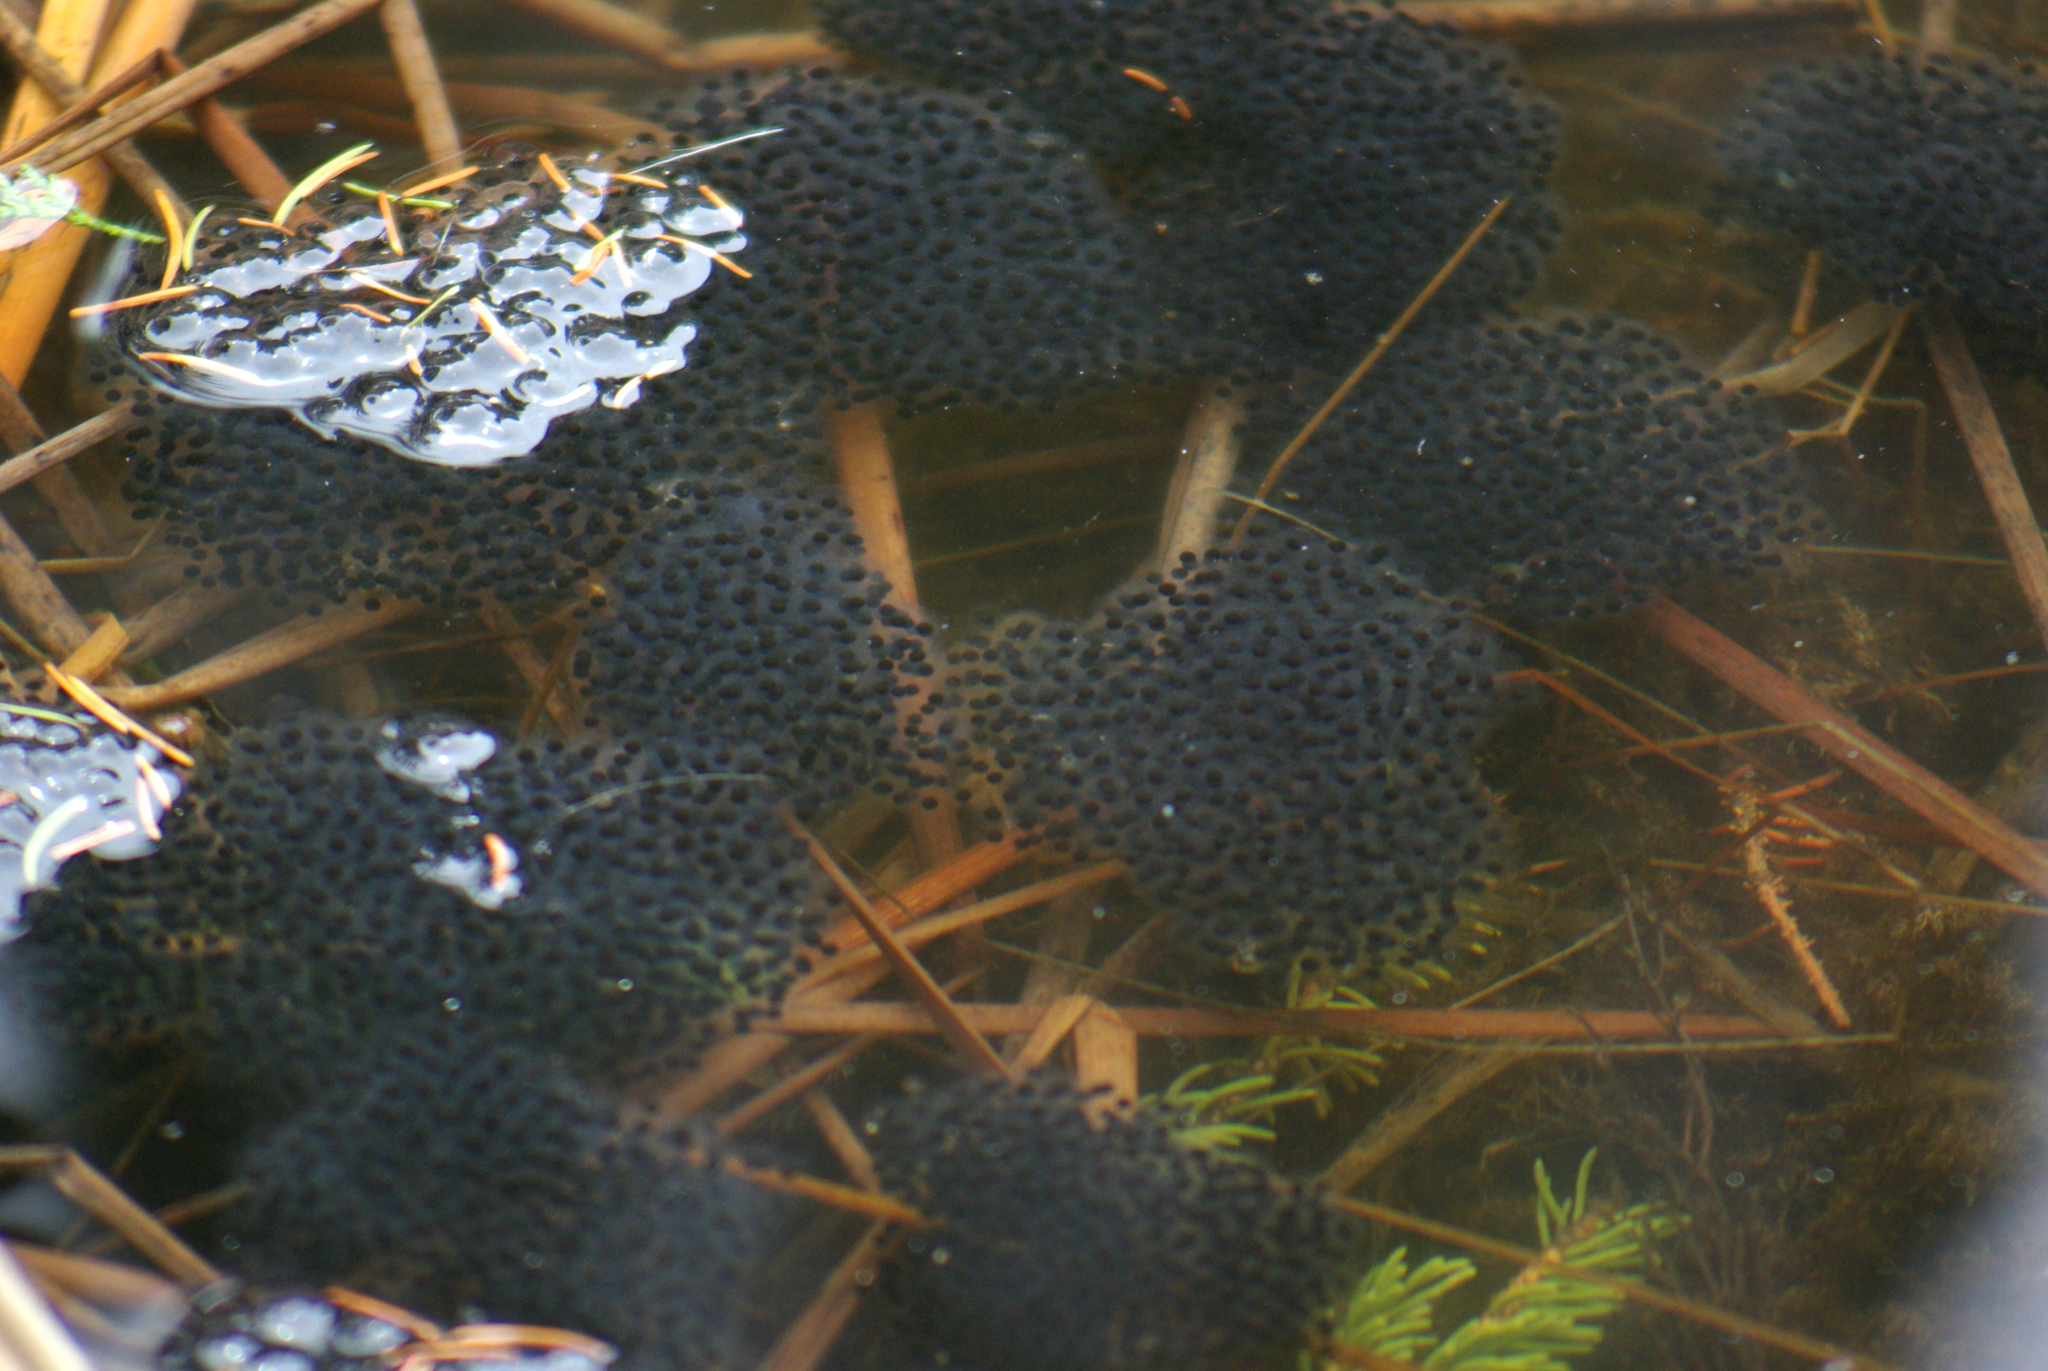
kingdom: Animalia
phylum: Chordata
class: Amphibia
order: Anura
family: Ranidae
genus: Lithobates
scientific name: Lithobates sylvaticus
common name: Wood frog
